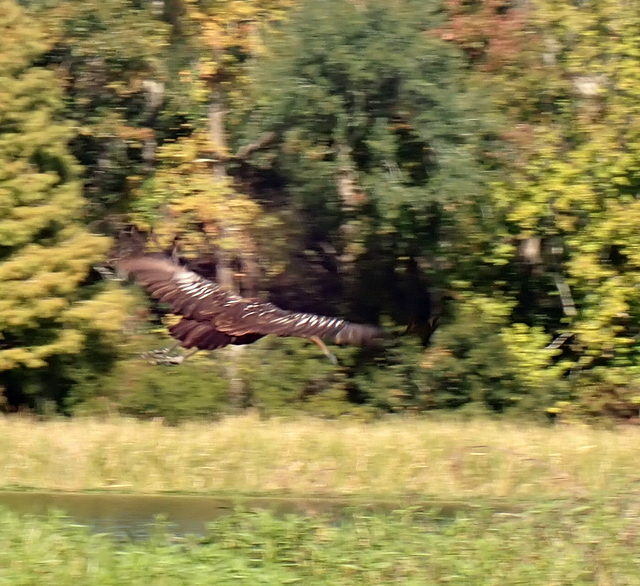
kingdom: Animalia
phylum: Chordata
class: Aves
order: Gruiformes
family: Aramidae
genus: Aramus
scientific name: Aramus guarauna
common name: Limpkin
